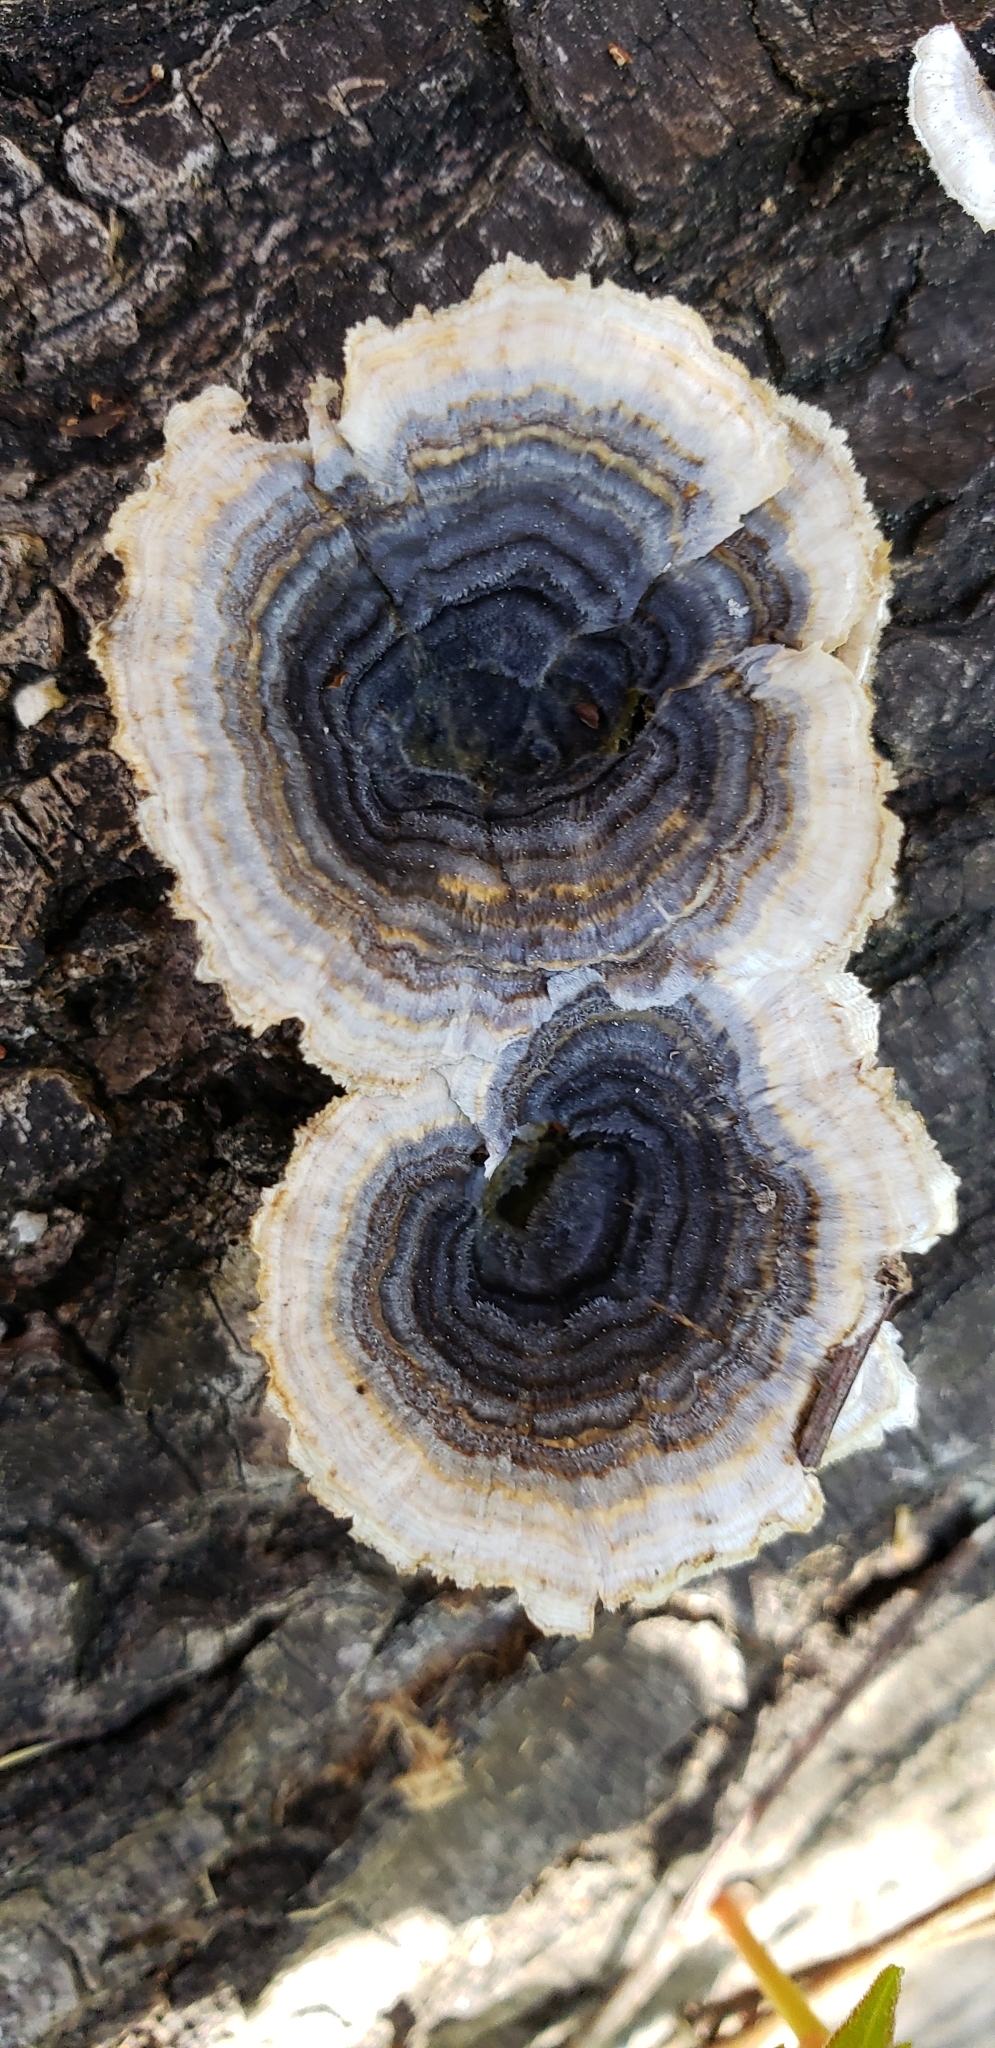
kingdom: Fungi
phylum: Basidiomycota
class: Agaricomycetes
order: Polyporales
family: Polyporaceae
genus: Trametes
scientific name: Trametes versicolor
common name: Turkeytail
